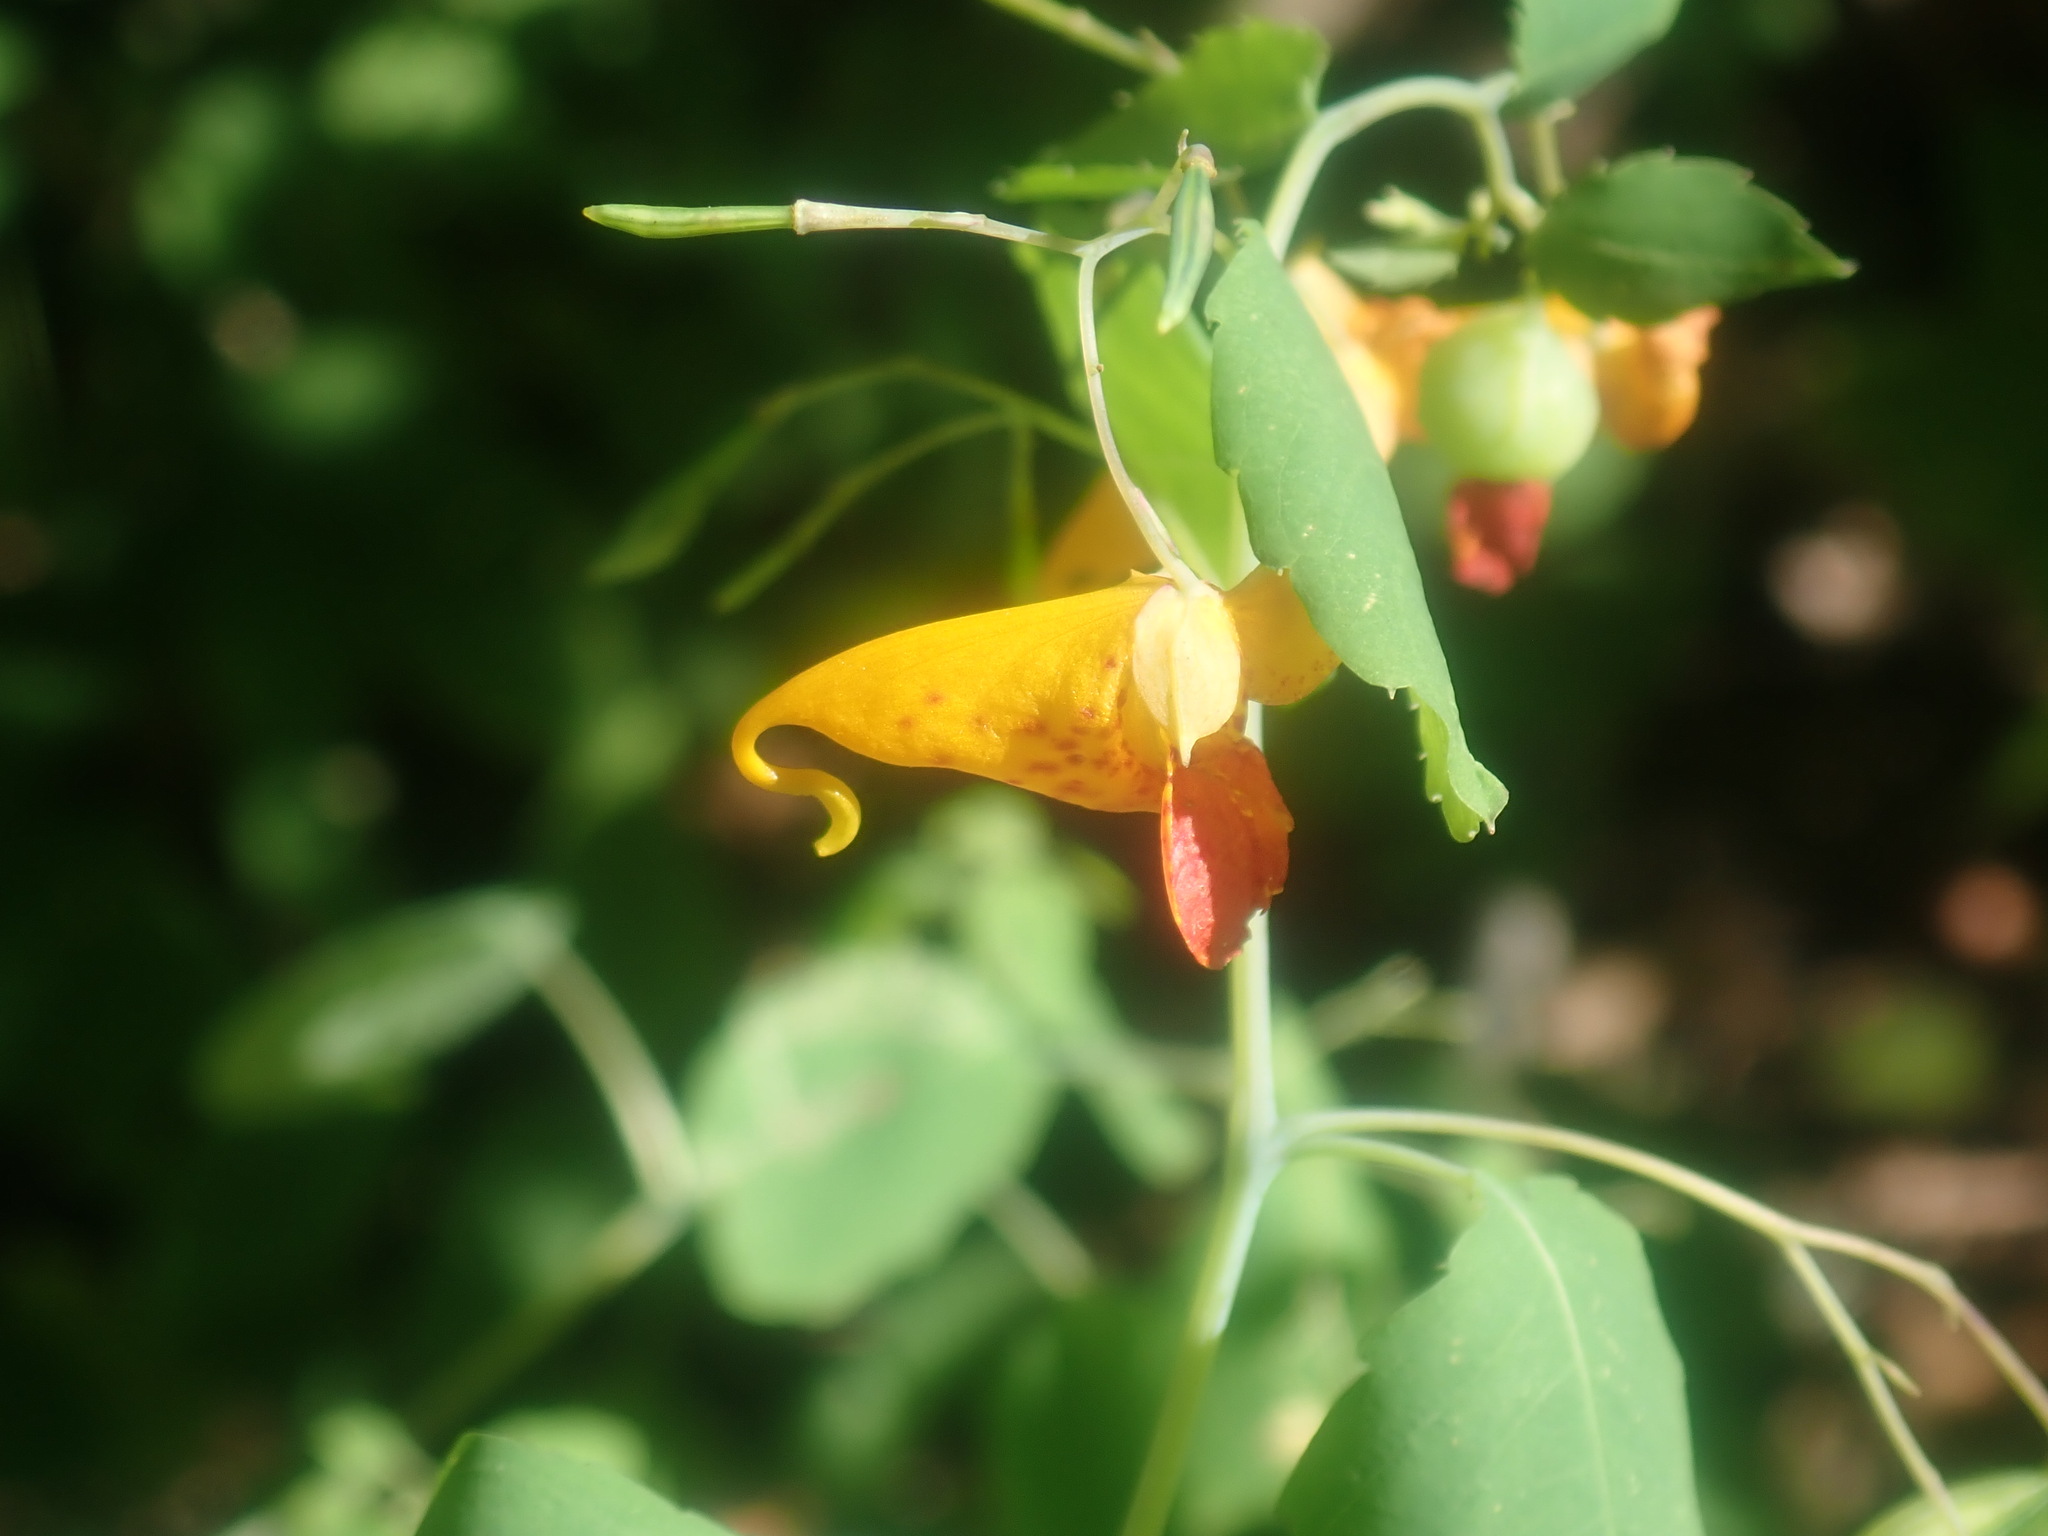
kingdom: Plantae
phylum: Tracheophyta
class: Magnoliopsida
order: Ericales
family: Balsaminaceae
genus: Impatiens
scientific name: Impatiens capensis
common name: Orange balsam
